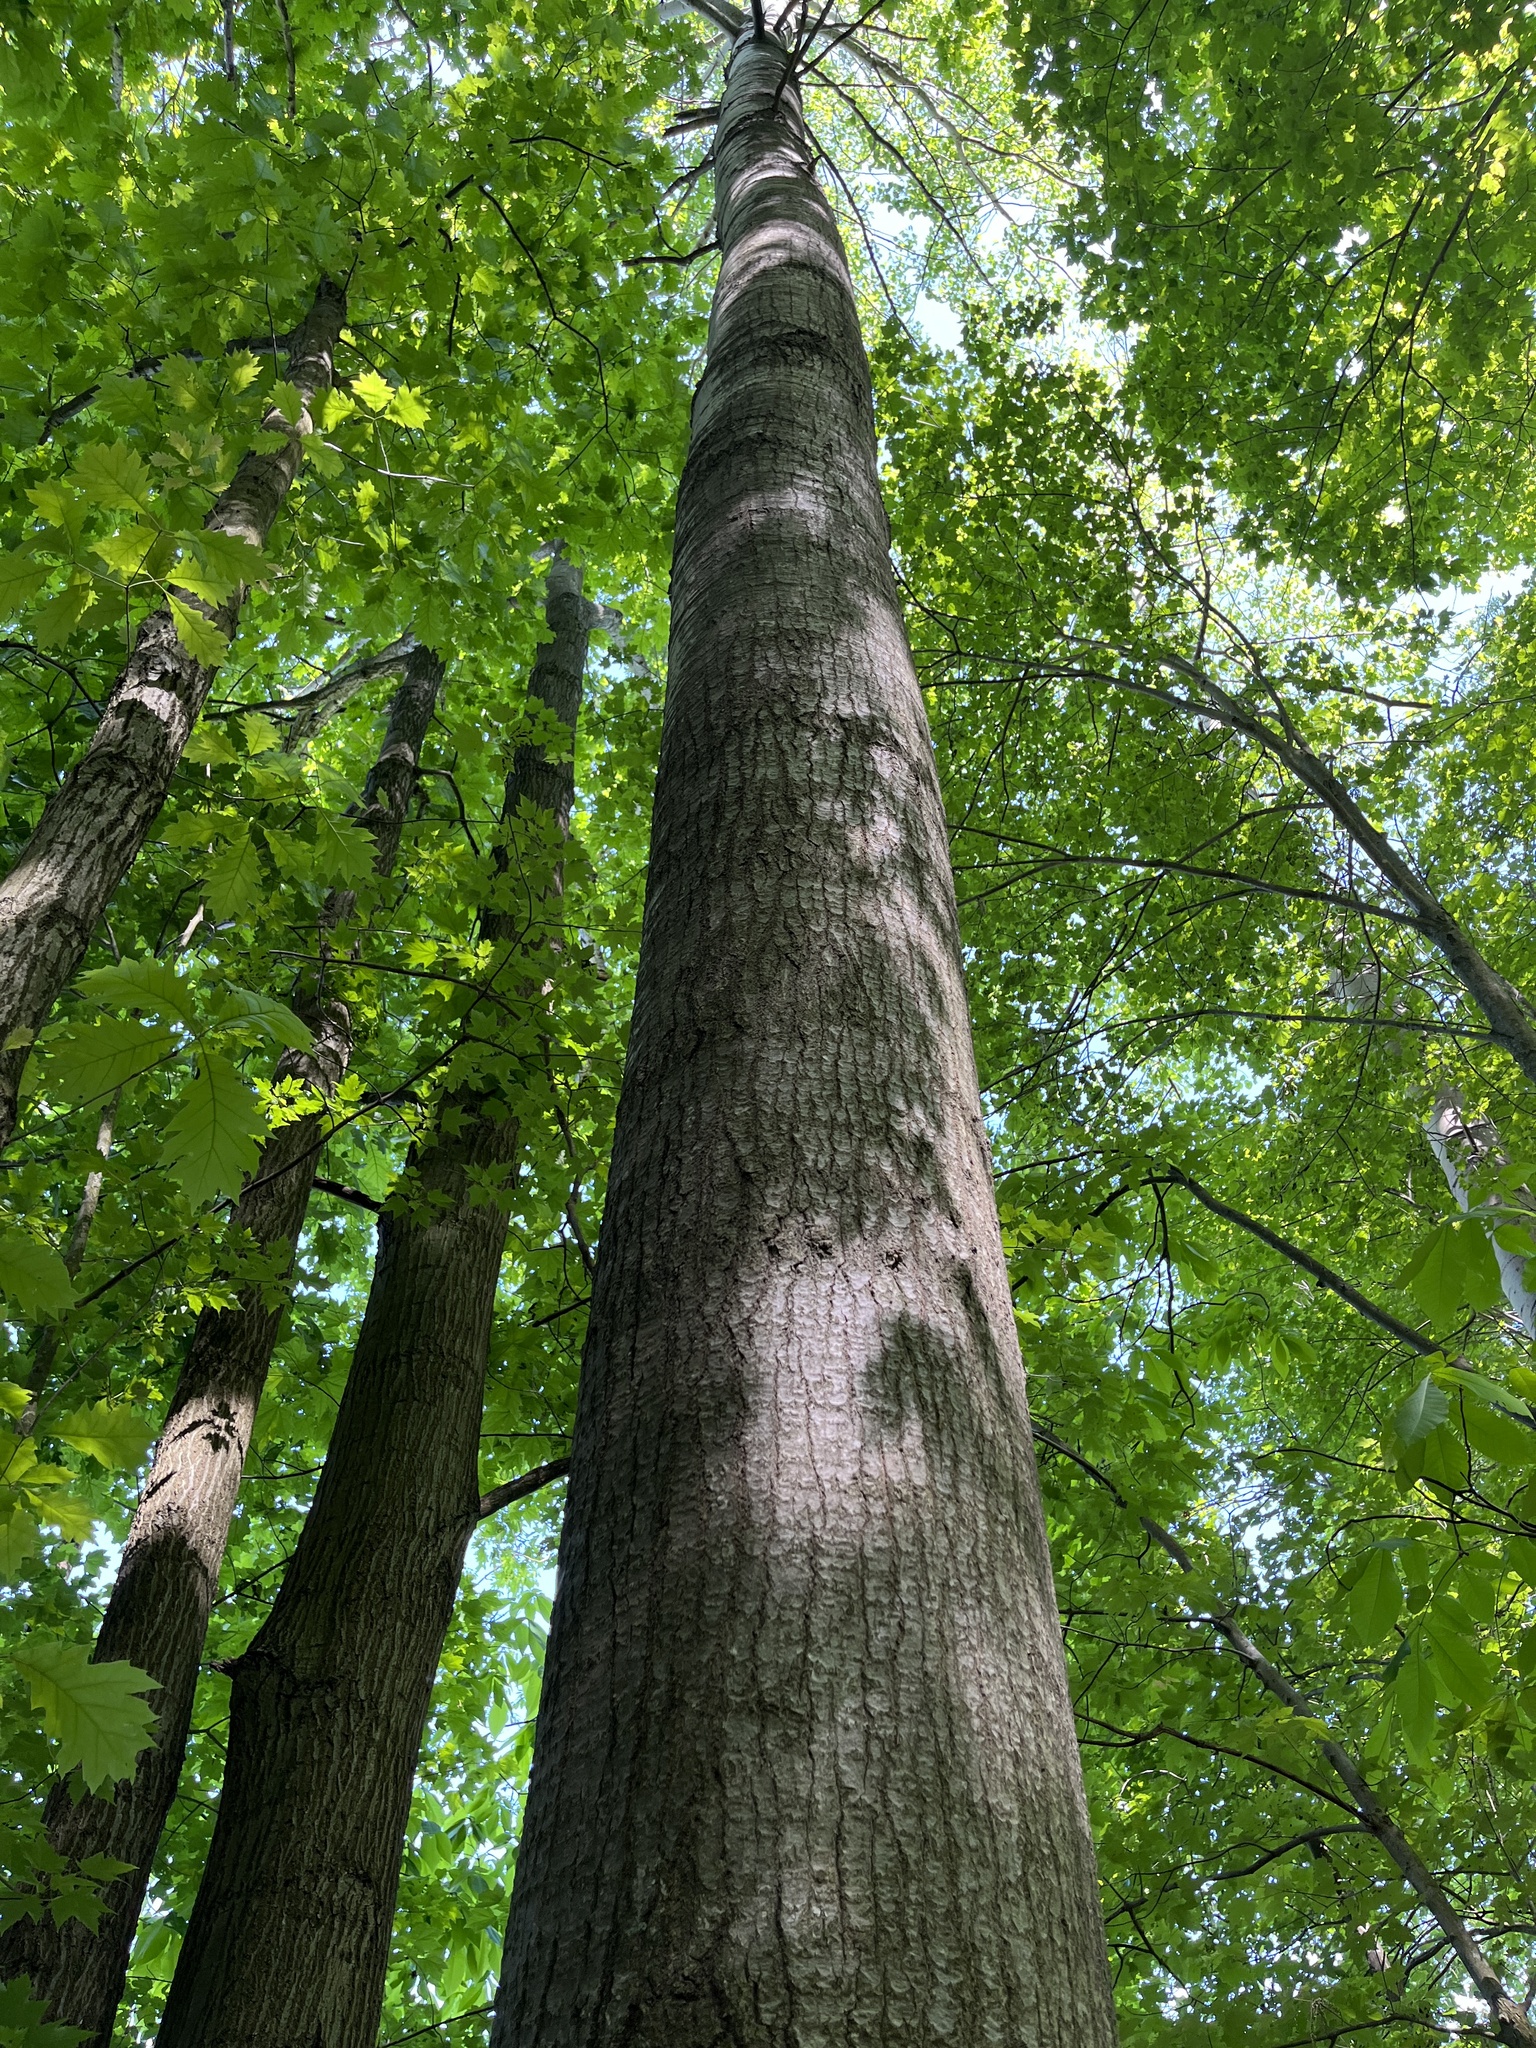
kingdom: Plantae
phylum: Tracheophyta
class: Magnoliopsida
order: Malpighiales
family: Salicaceae
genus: Populus
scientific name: Populus tremuloides
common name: Quaking aspen
